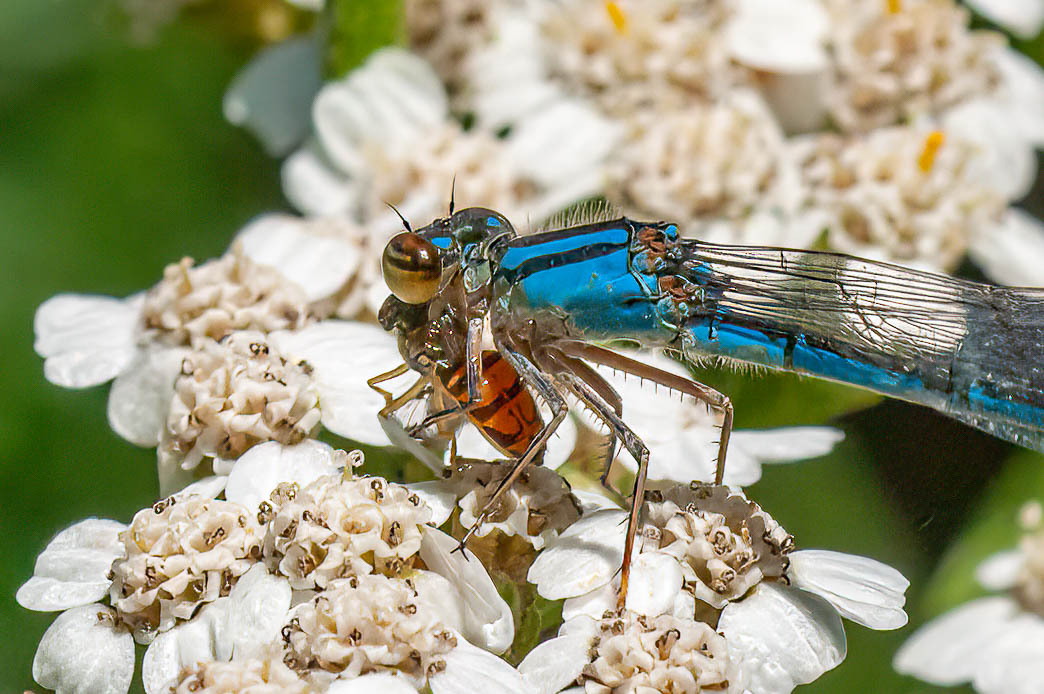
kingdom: Animalia
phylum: Arthropoda
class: Insecta
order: Diptera
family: Syrphidae
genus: Toxomerus
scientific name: Toxomerus marginatus
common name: Syrphid fly
